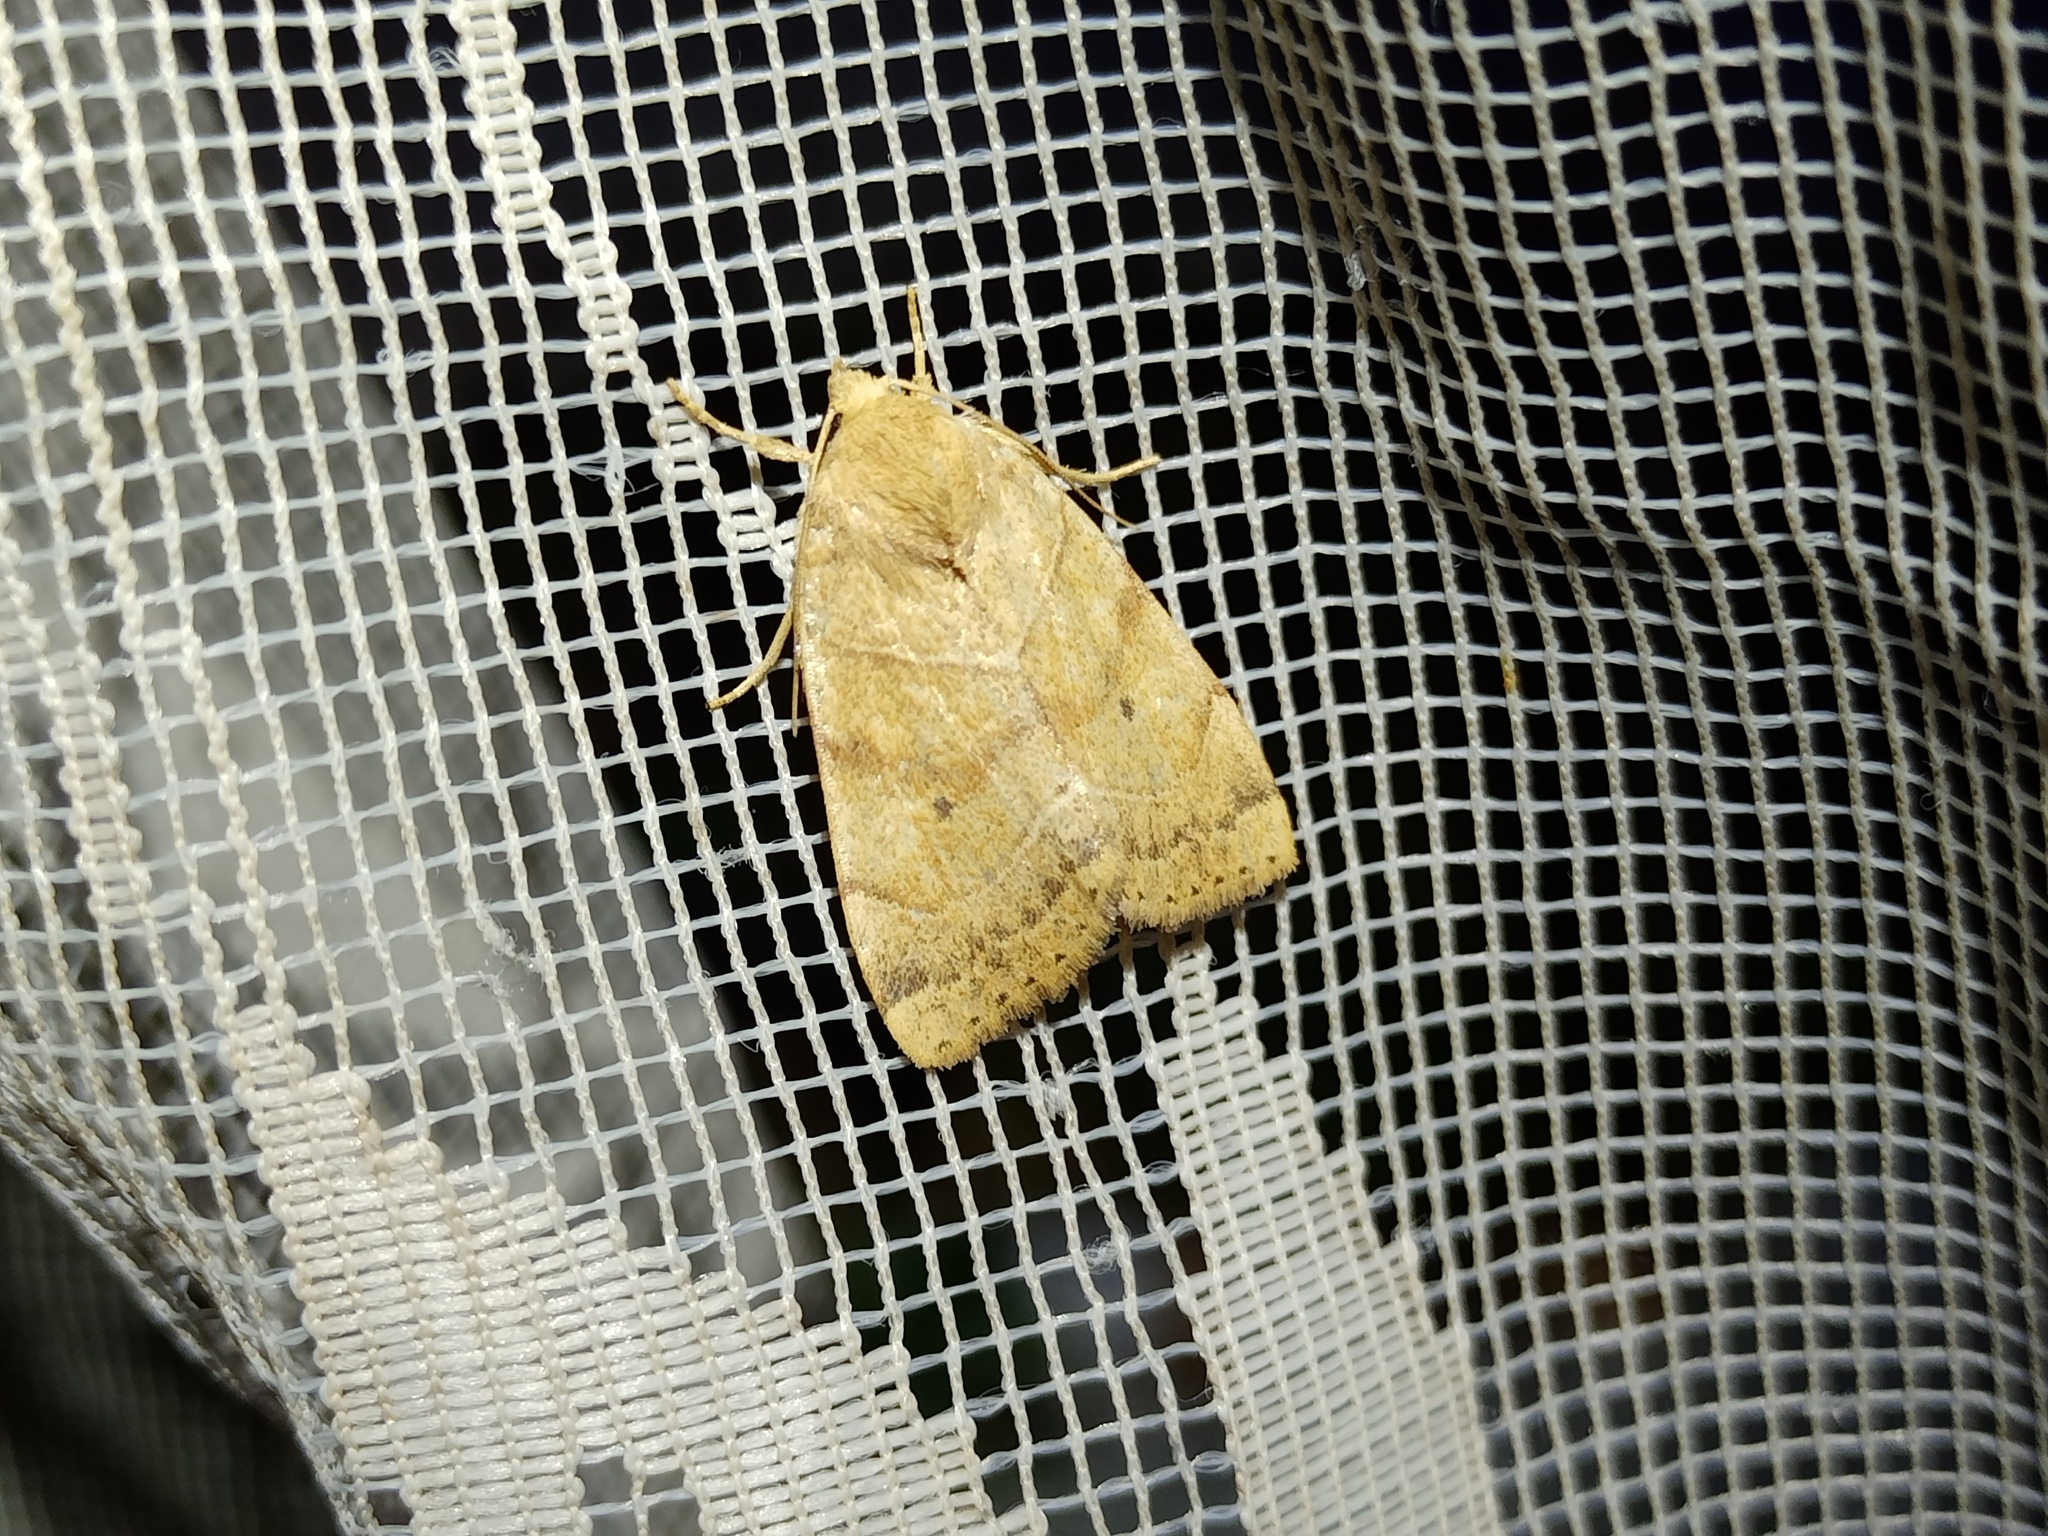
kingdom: Animalia
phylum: Arthropoda
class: Insecta
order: Lepidoptera
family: Noctuidae
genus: Cosmia
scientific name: Cosmia trapezina
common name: Dun-bar
